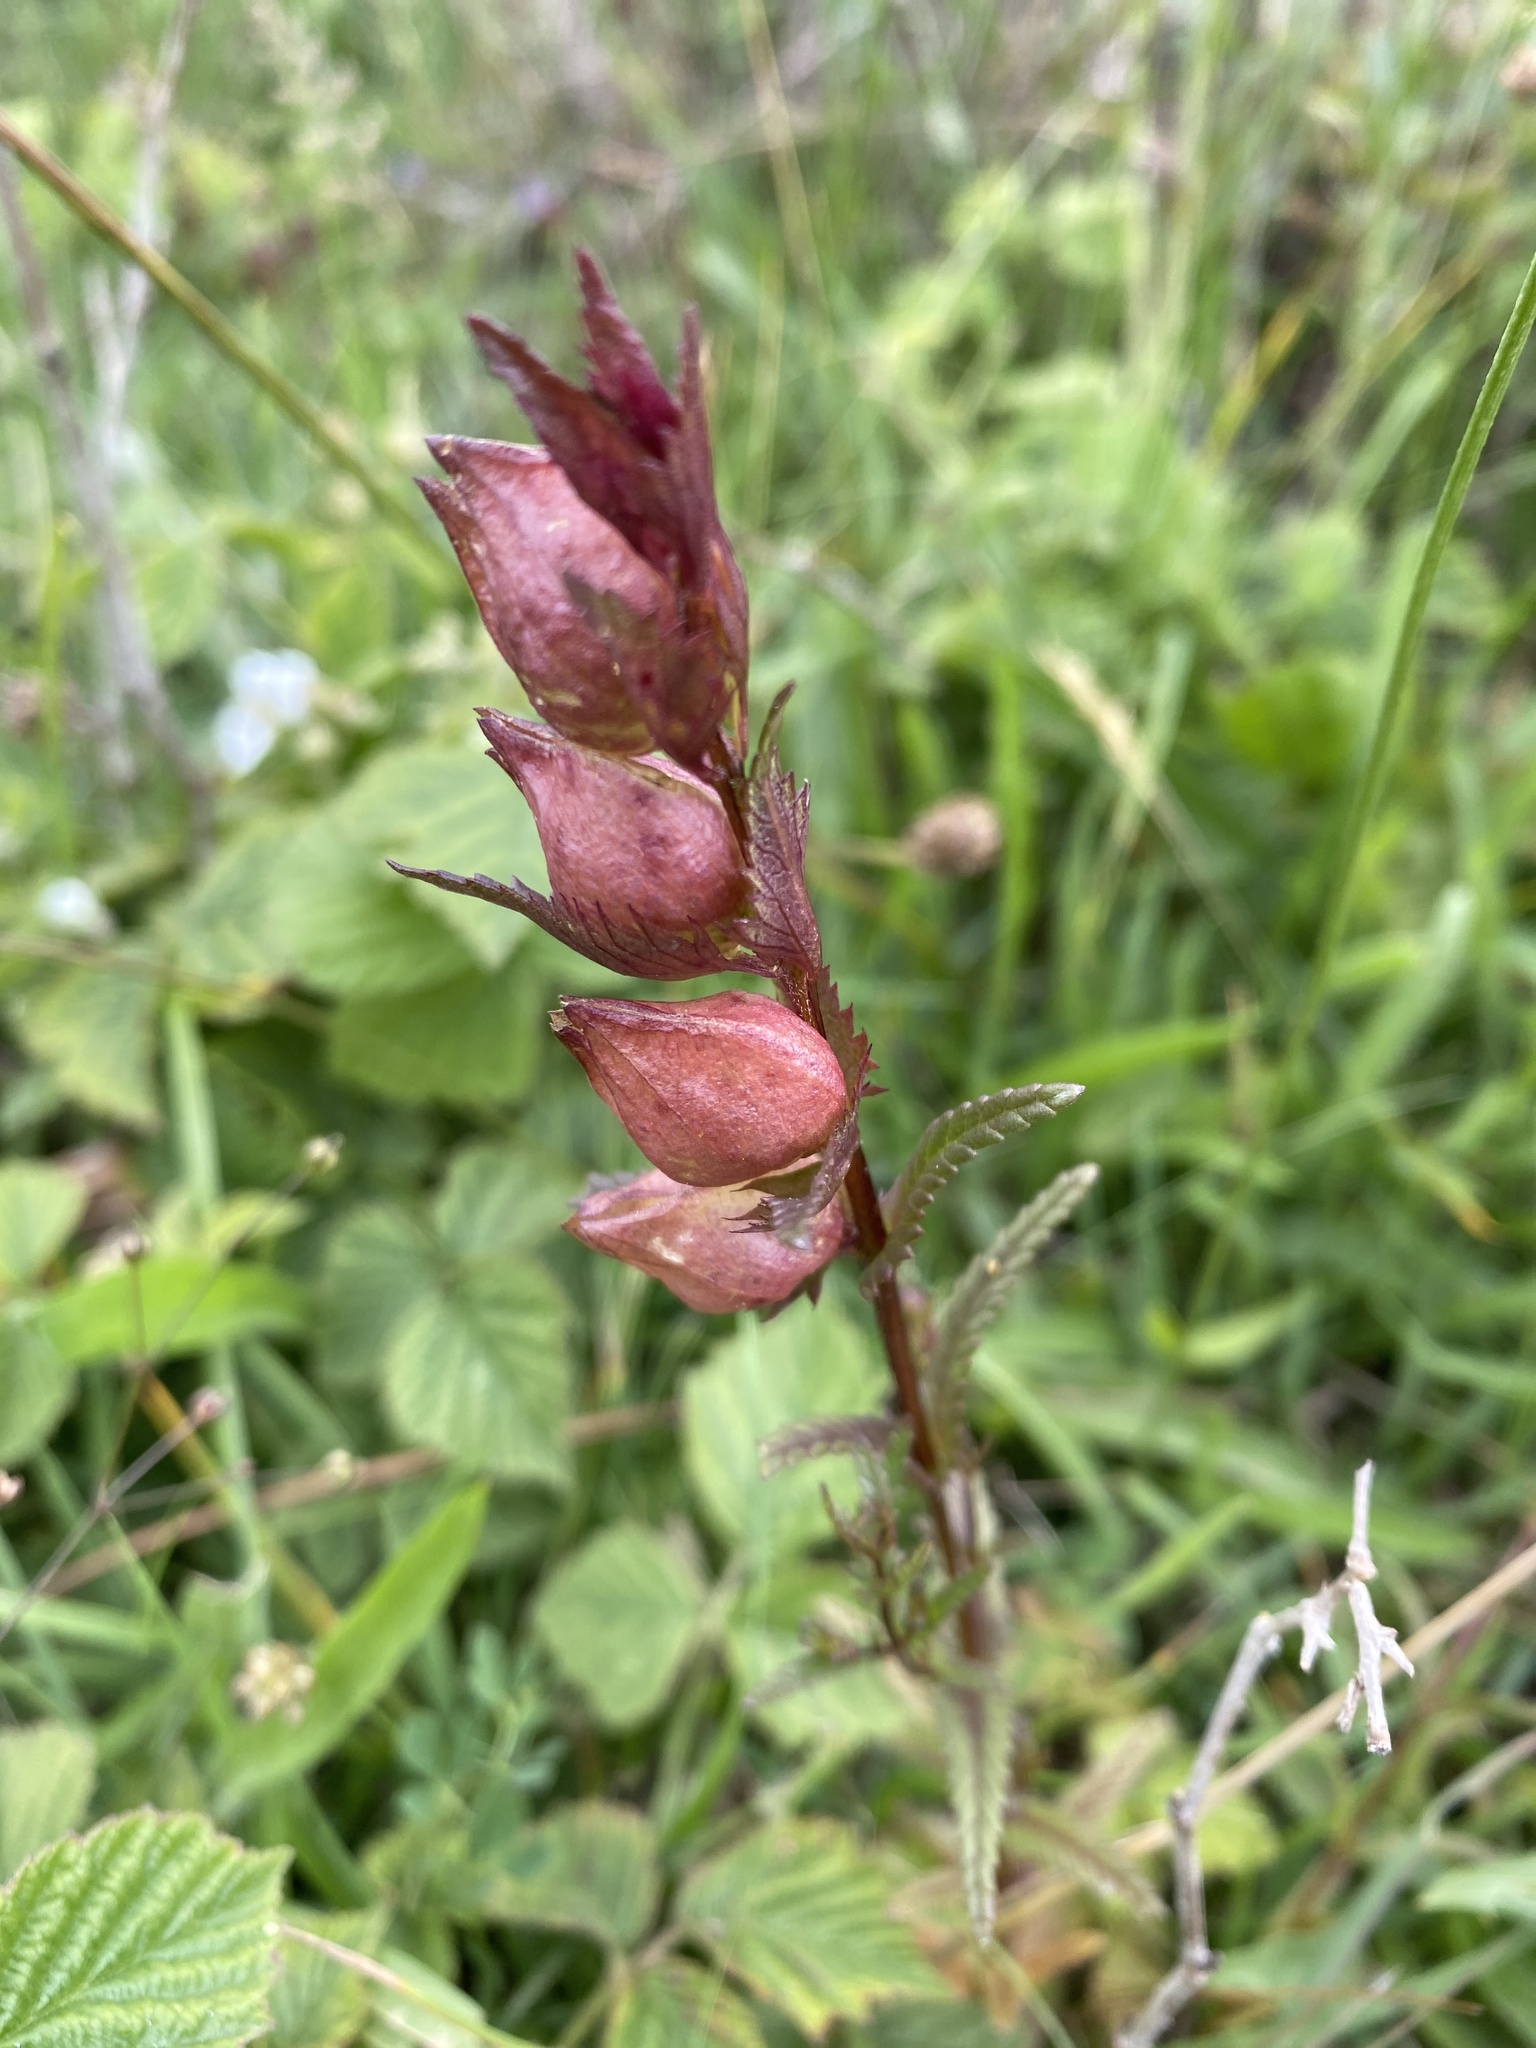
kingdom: Plantae
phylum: Tracheophyta
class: Magnoliopsida
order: Lamiales
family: Orobanchaceae
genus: Rhinanthus
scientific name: Rhinanthus minor
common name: Yellow-rattle
